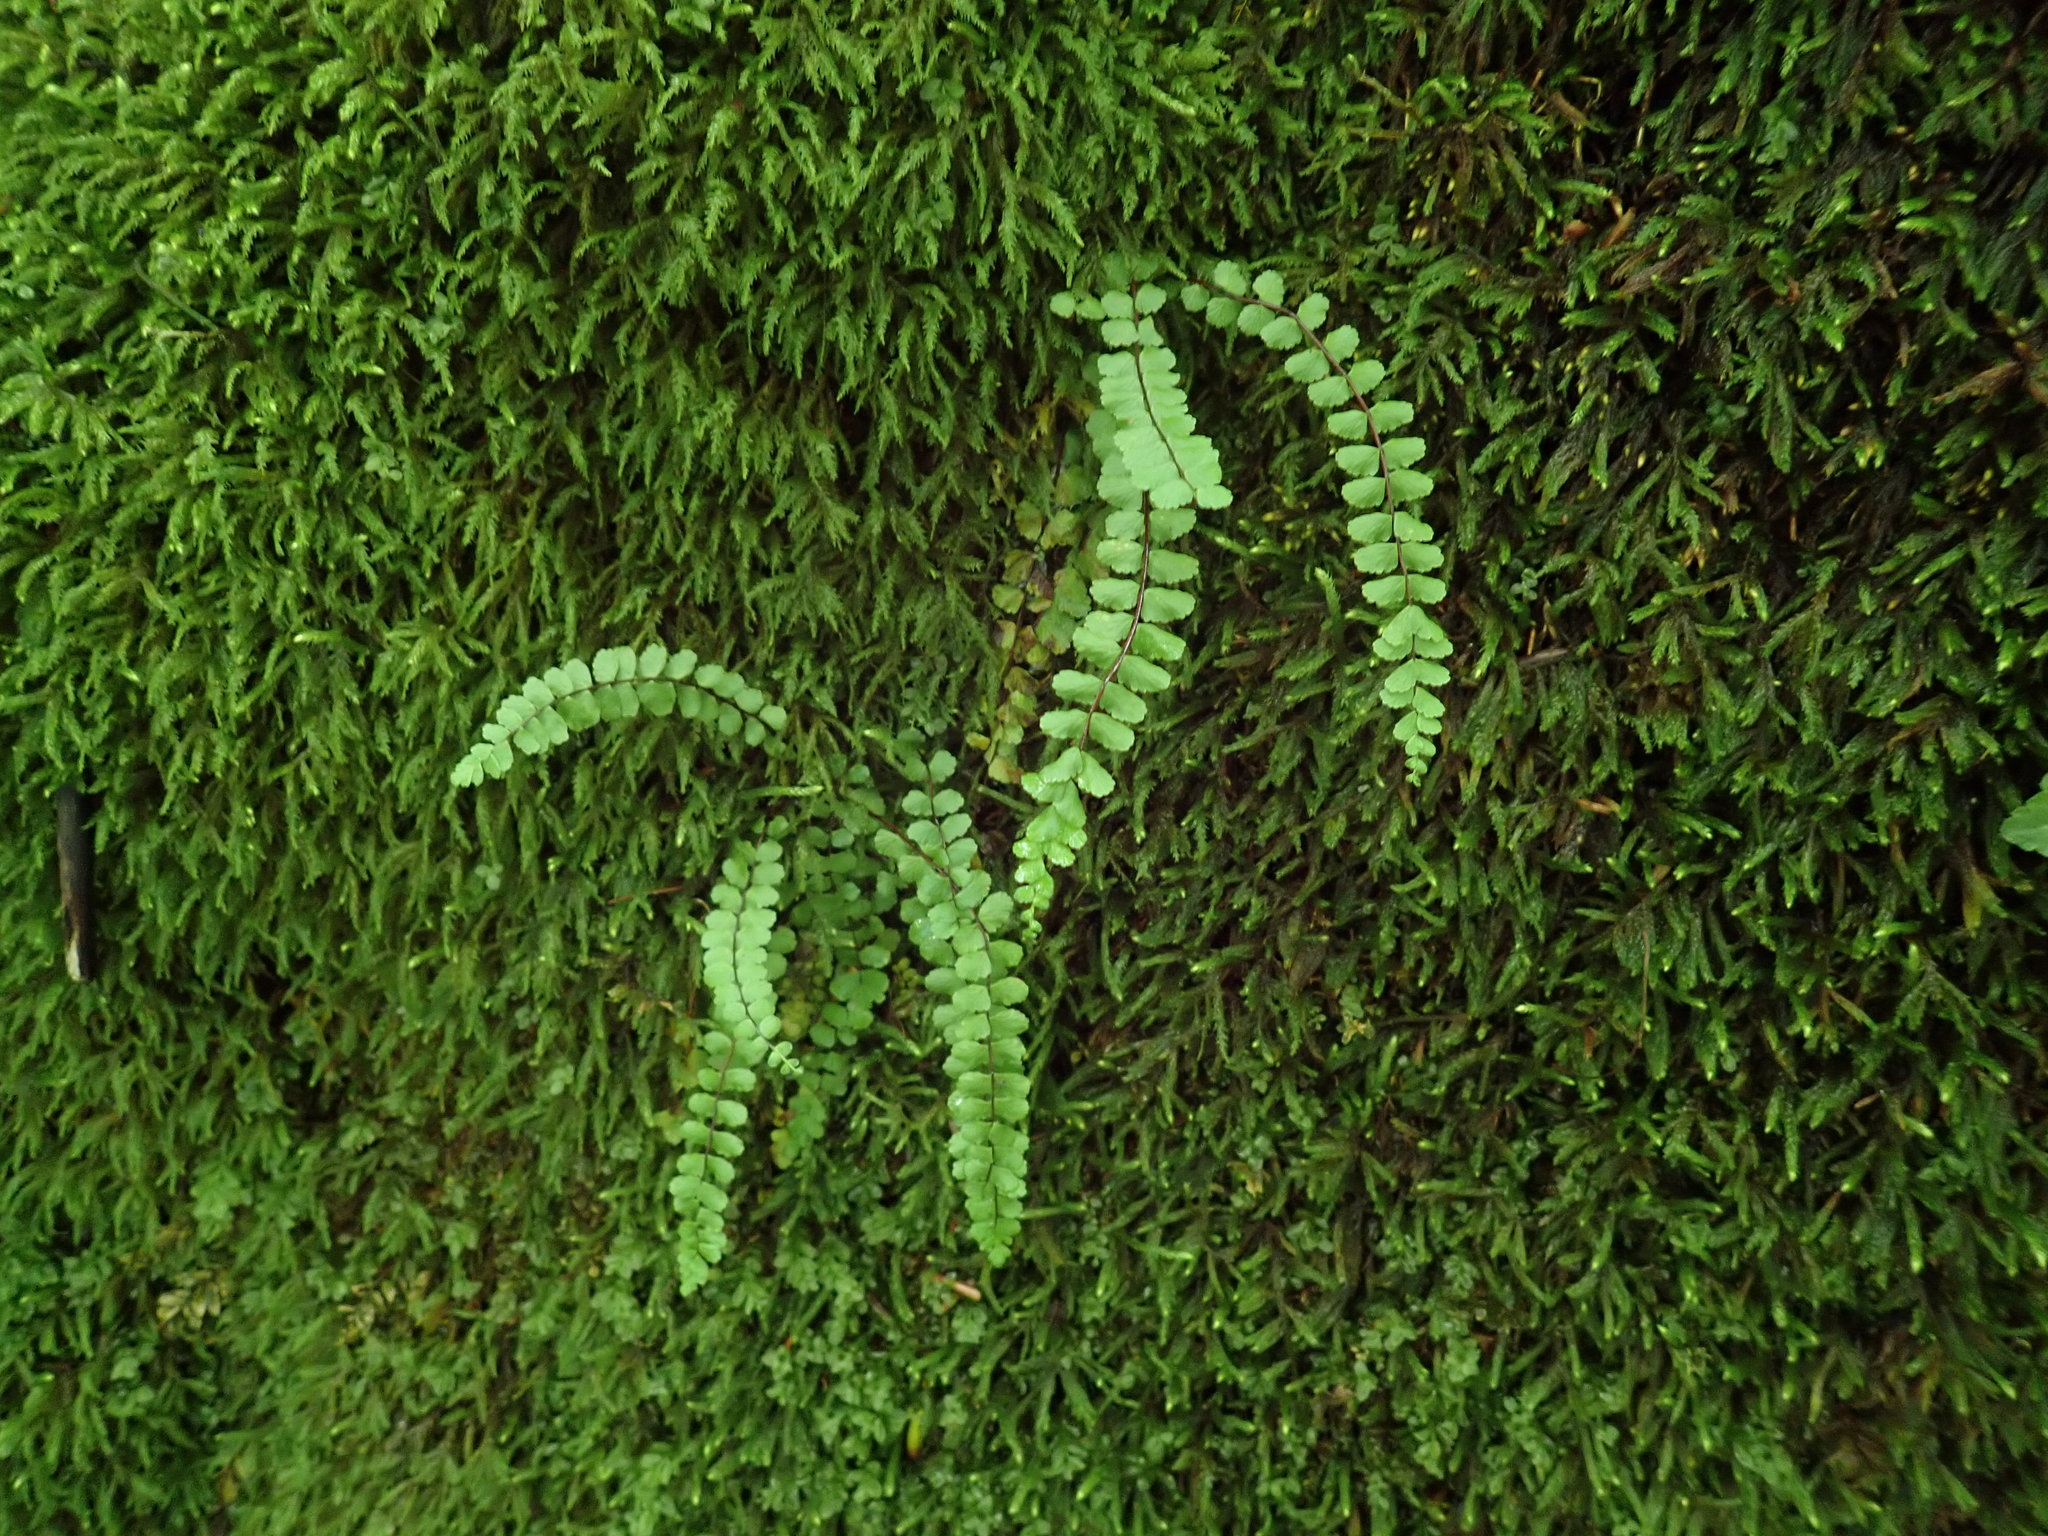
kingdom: Plantae
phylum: Tracheophyta
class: Polypodiopsida
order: Polypodiales
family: Aspleniaceae
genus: Asplenium
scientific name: Asplenium trichomanes
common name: Maidenhair spleenwort
